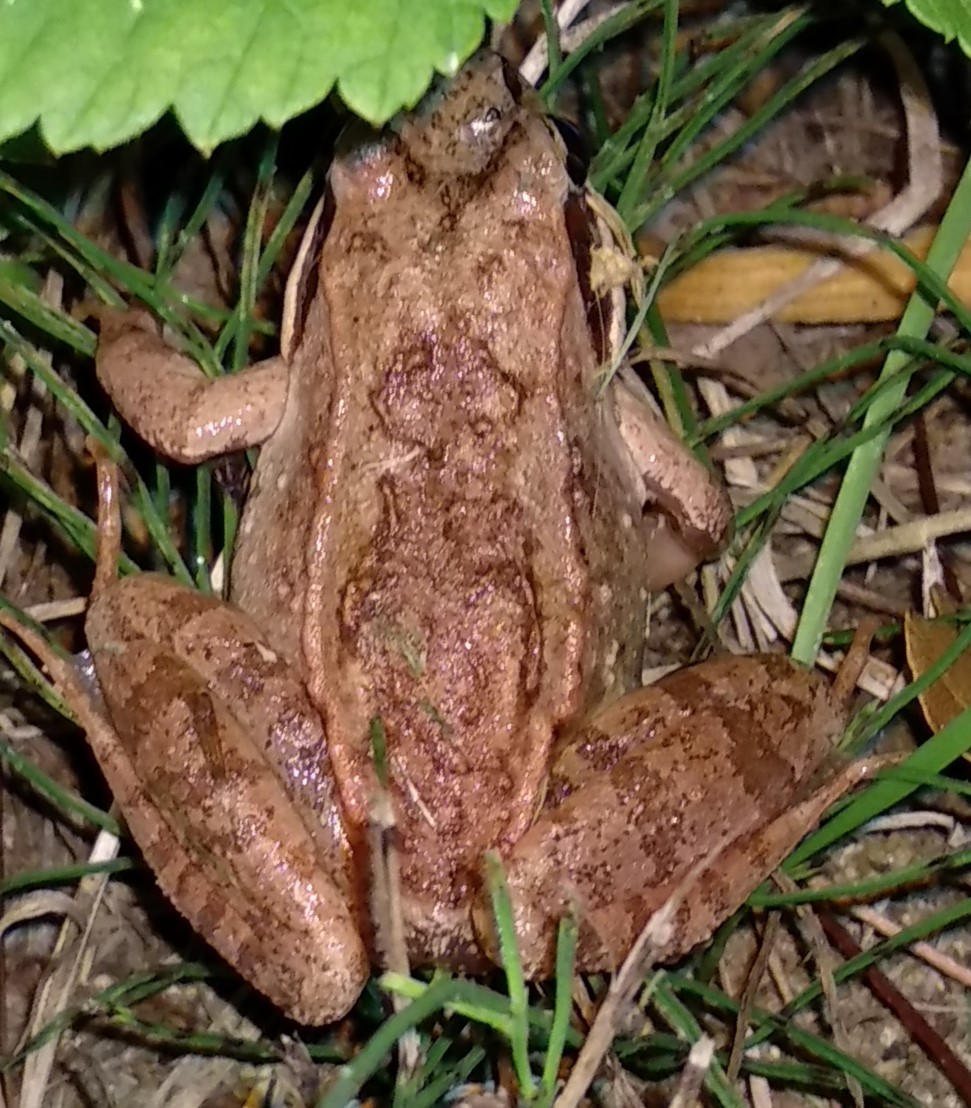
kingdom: Animalia
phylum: Chordata
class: Amphibia
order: Anura
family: Ranidae
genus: Lithobates
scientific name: Lithobates sylvaticus
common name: Wood frog
